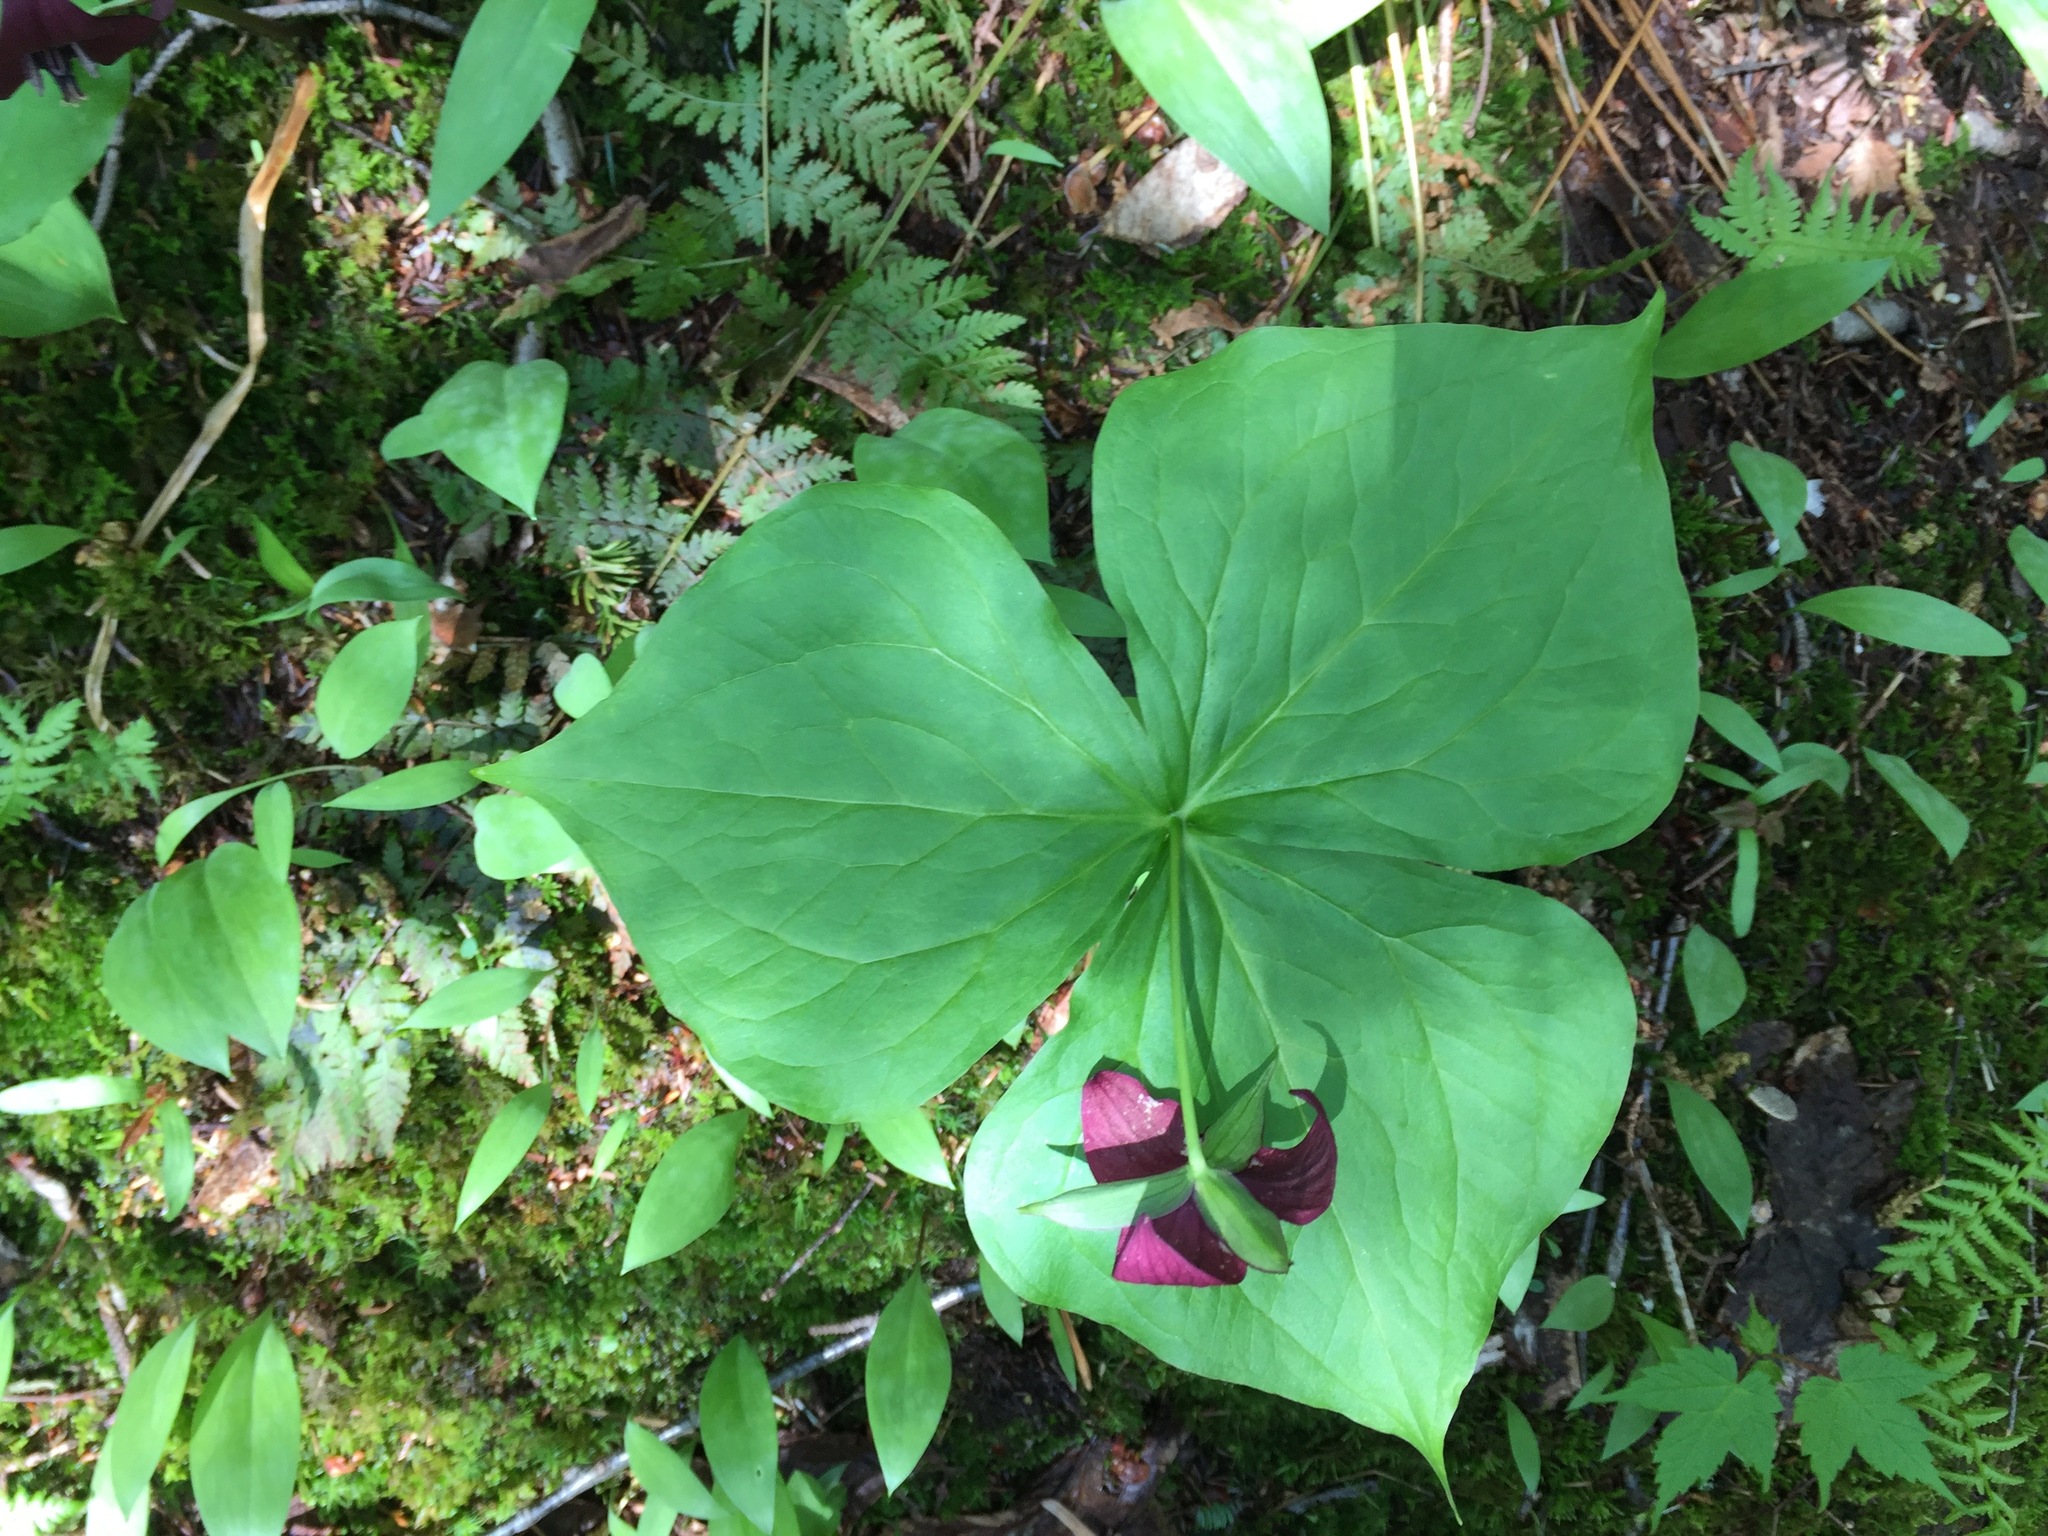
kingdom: Plantae
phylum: Tracheophyta
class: Liliopsida
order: Liliales
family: Melanthiaceae
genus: Trillium
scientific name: Trillium erectum
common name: Purple trillium
